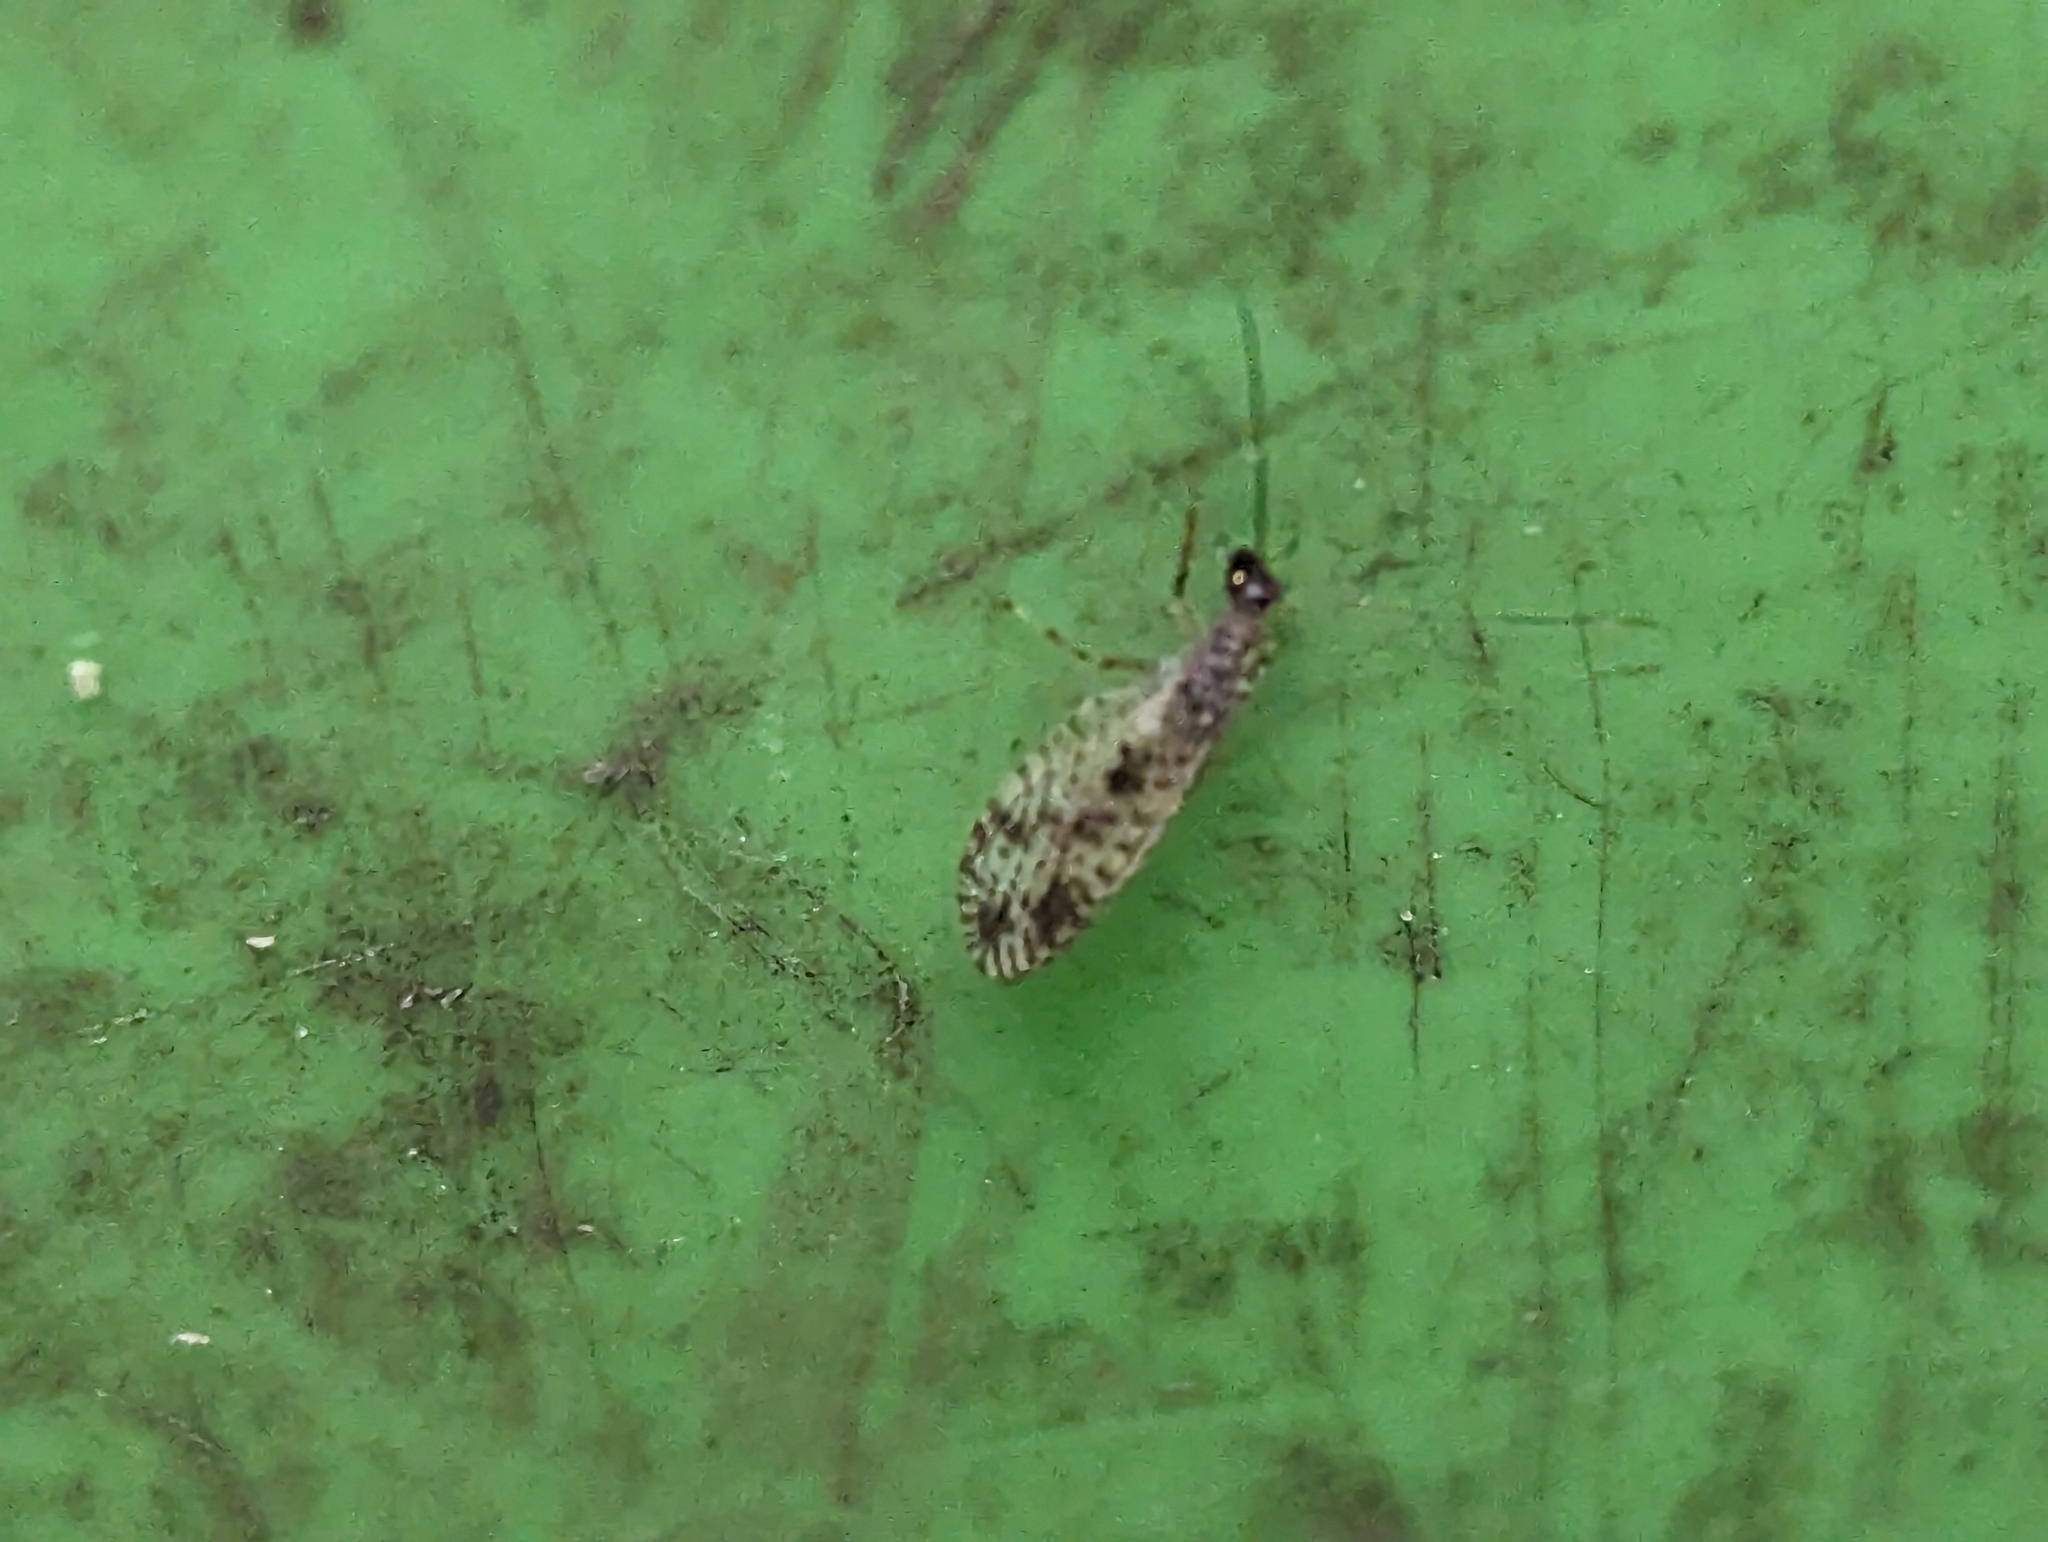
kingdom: Animalia
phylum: Arthropoda
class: Insecta
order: Neuroptera
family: Hemerobiidae
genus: Micromus
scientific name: Micromus variegatus
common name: Brown lacewing
